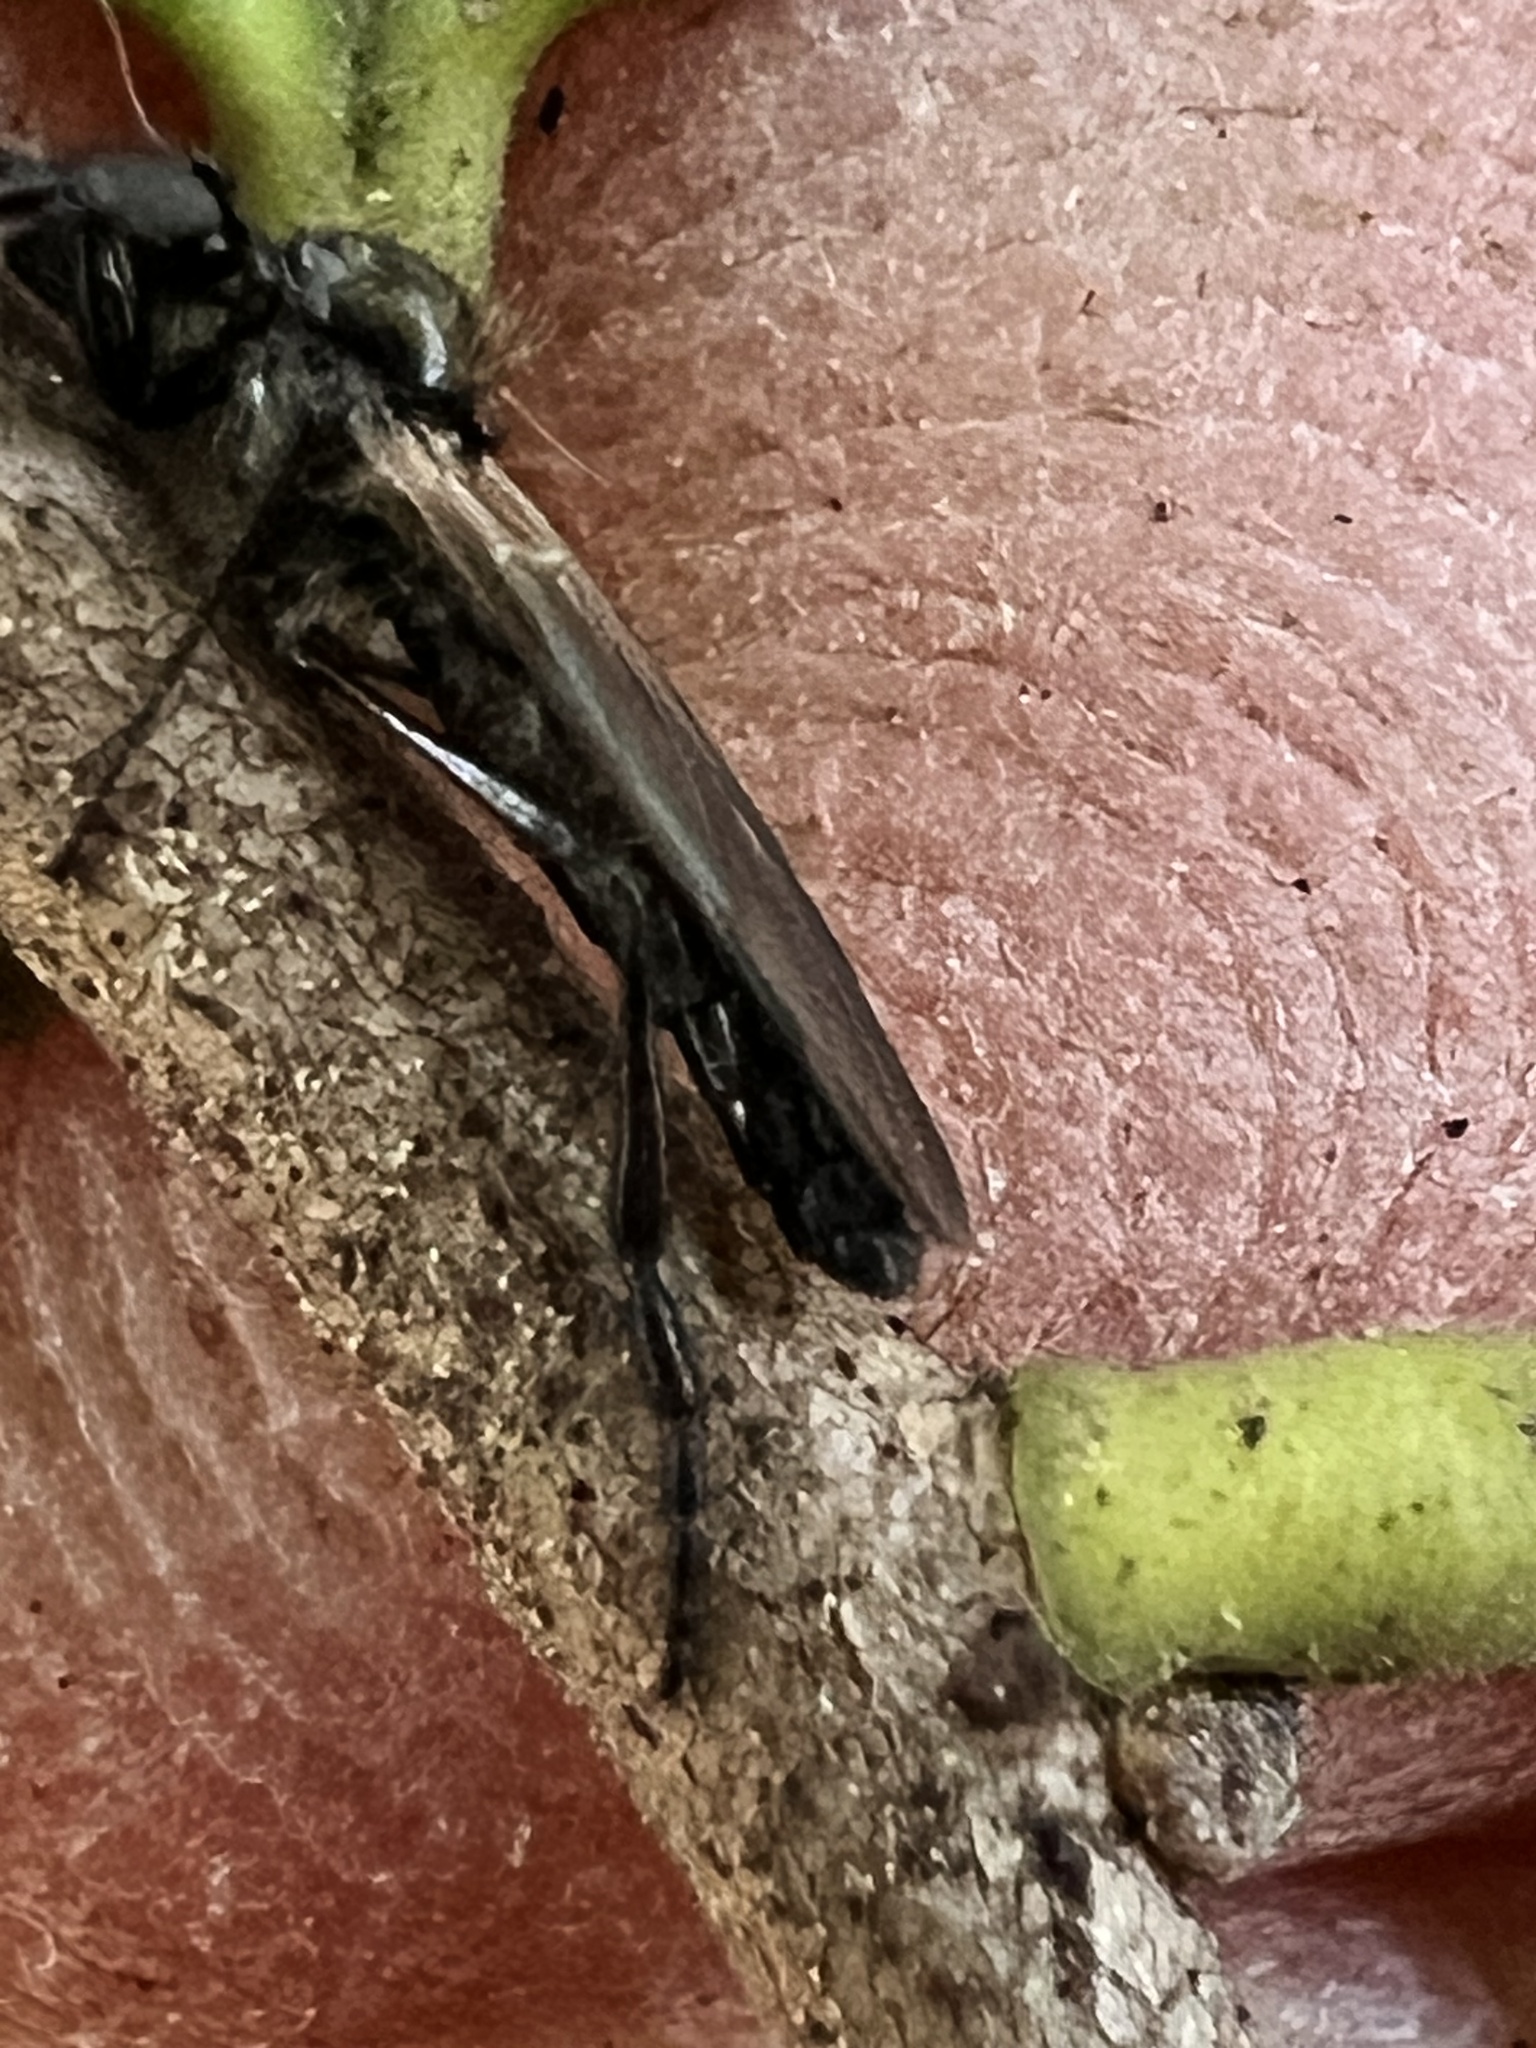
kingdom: Animalia
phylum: Arthropoda
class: Insecta
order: Diptera
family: Bibionidae
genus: Bibio
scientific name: Bibio longipes
